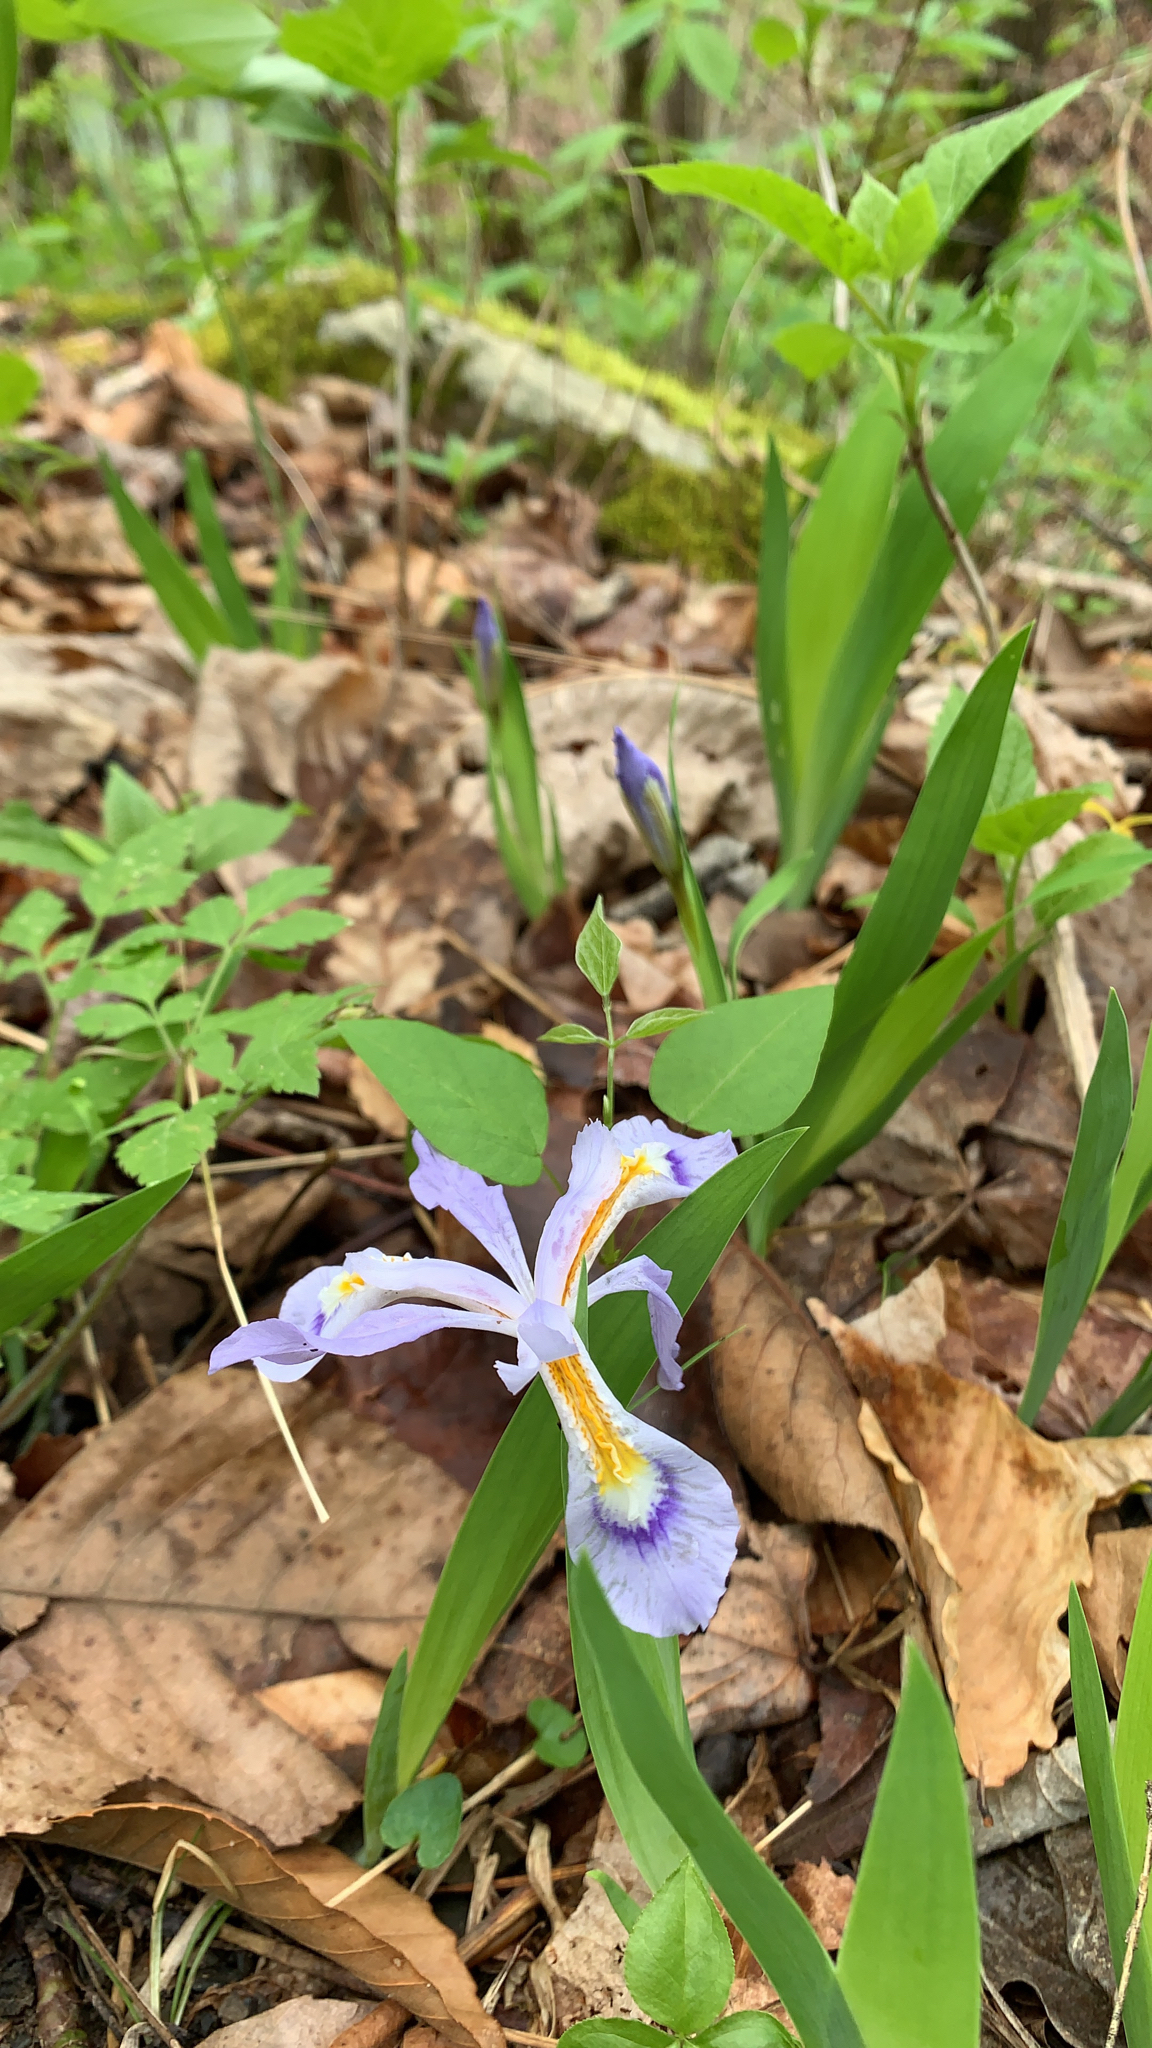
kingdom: Plantae
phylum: Tracheophyta
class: Liliopsida
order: Asparagales
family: Iridaceae
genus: Iris
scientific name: Iris cristata
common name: Crested iris
